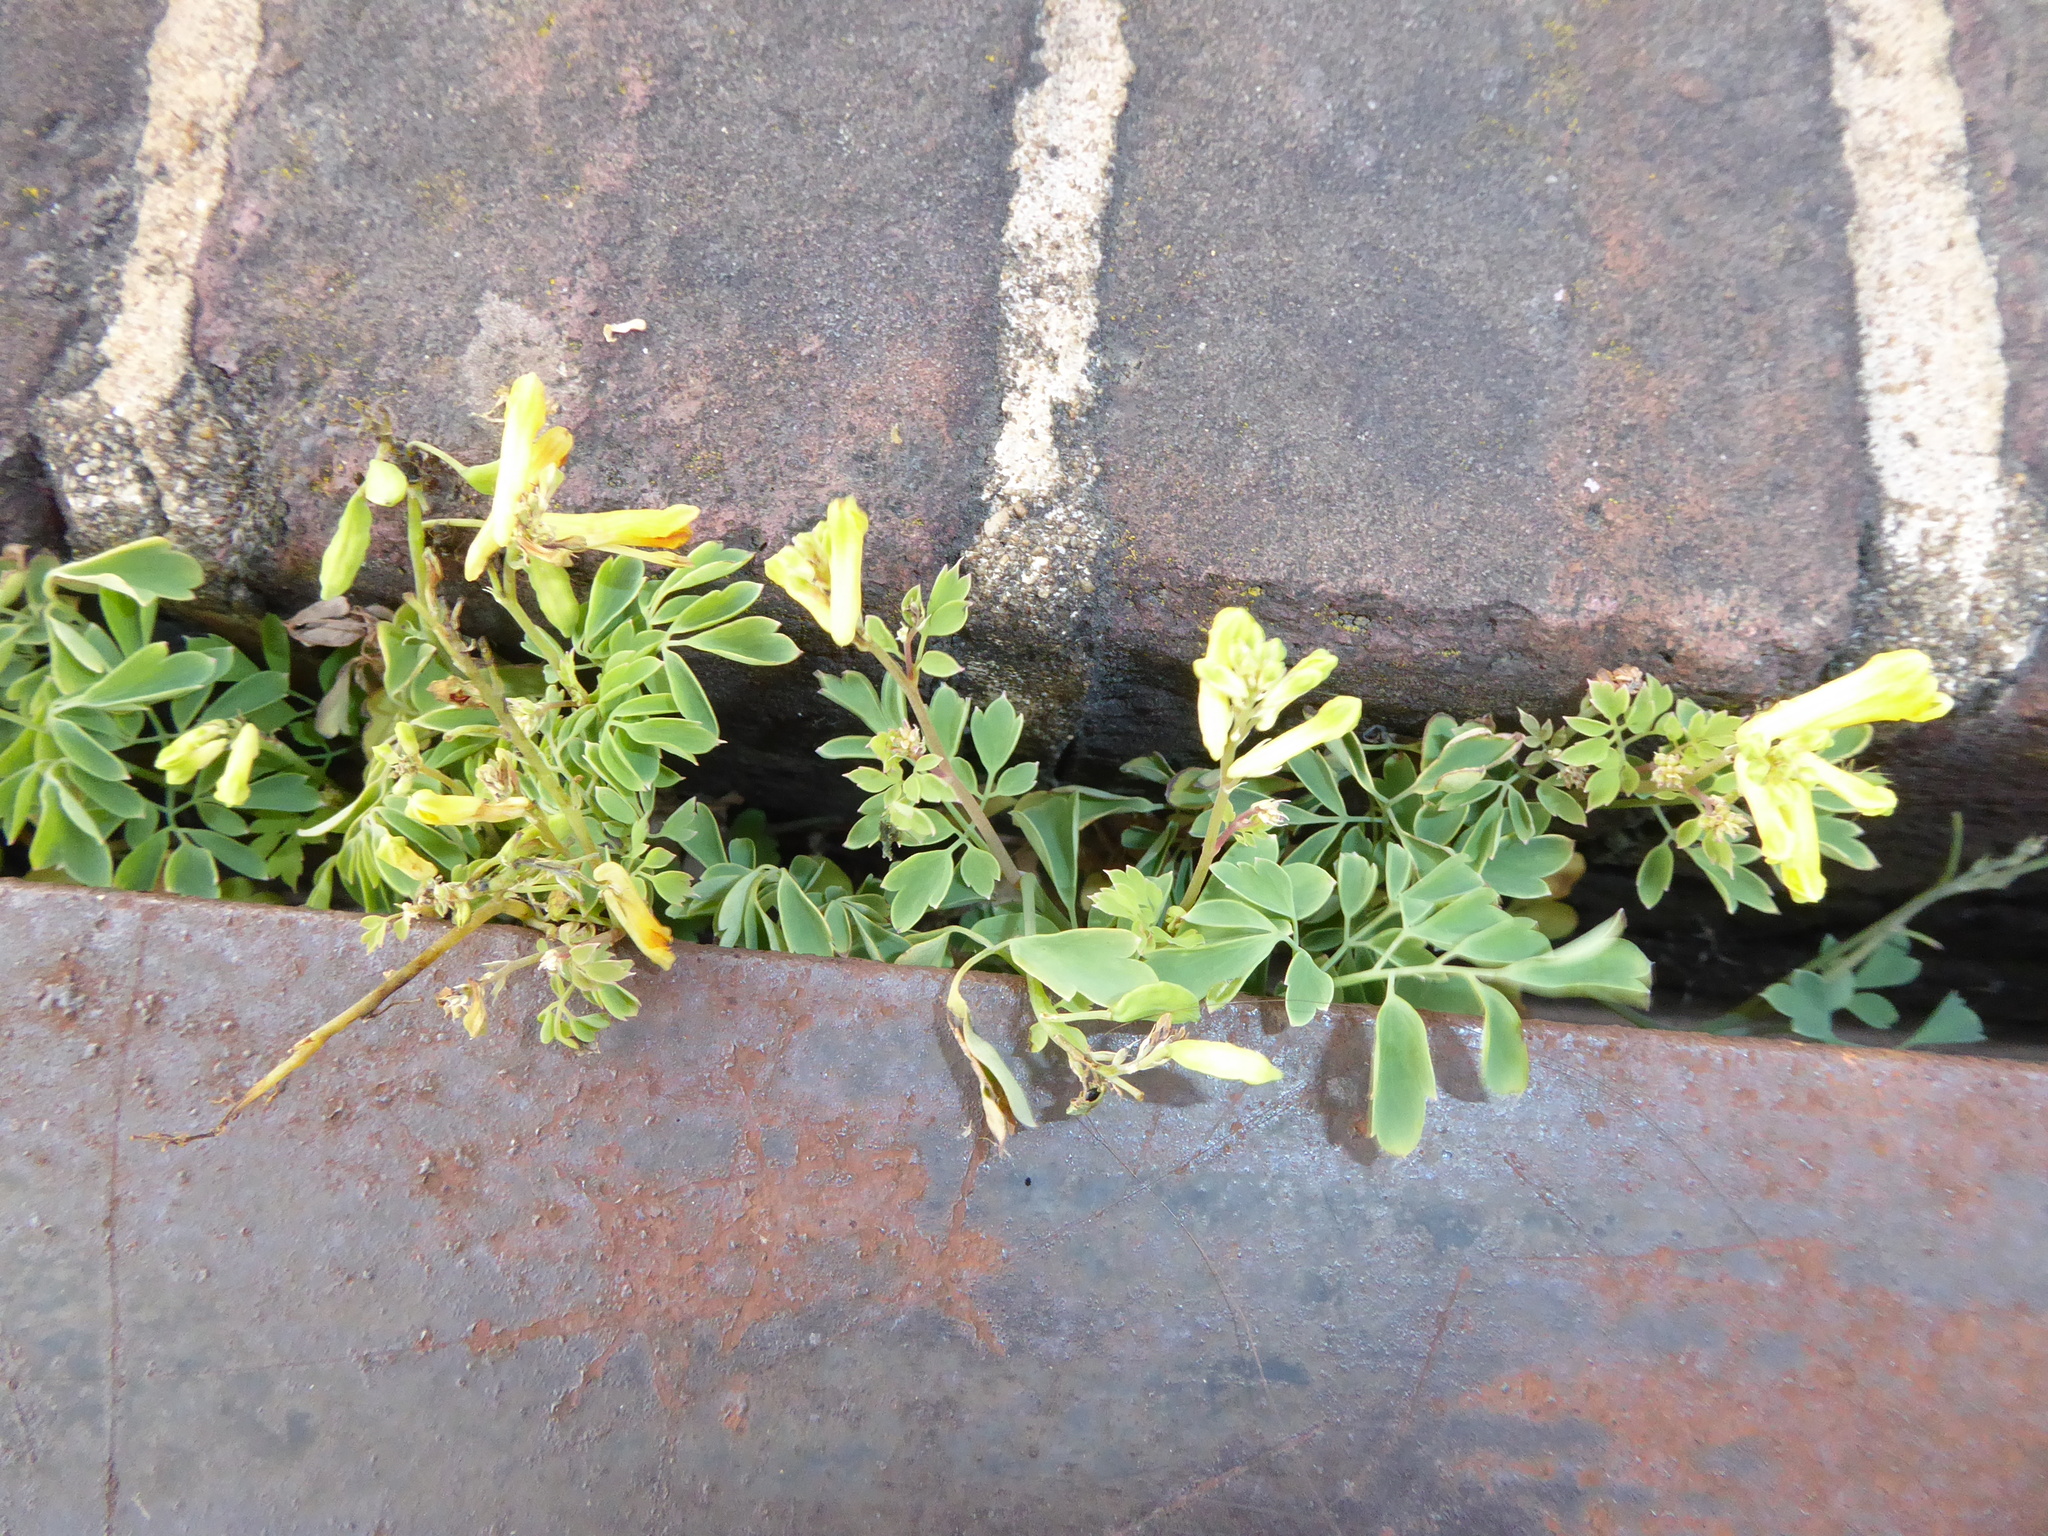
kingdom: Plantae
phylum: Tracheophyta
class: Magnoliopsida
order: Ranunculales
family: Papaveraceae
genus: Pseudofumaria
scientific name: Pseudofumaria lutea
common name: Yellow corydalis
